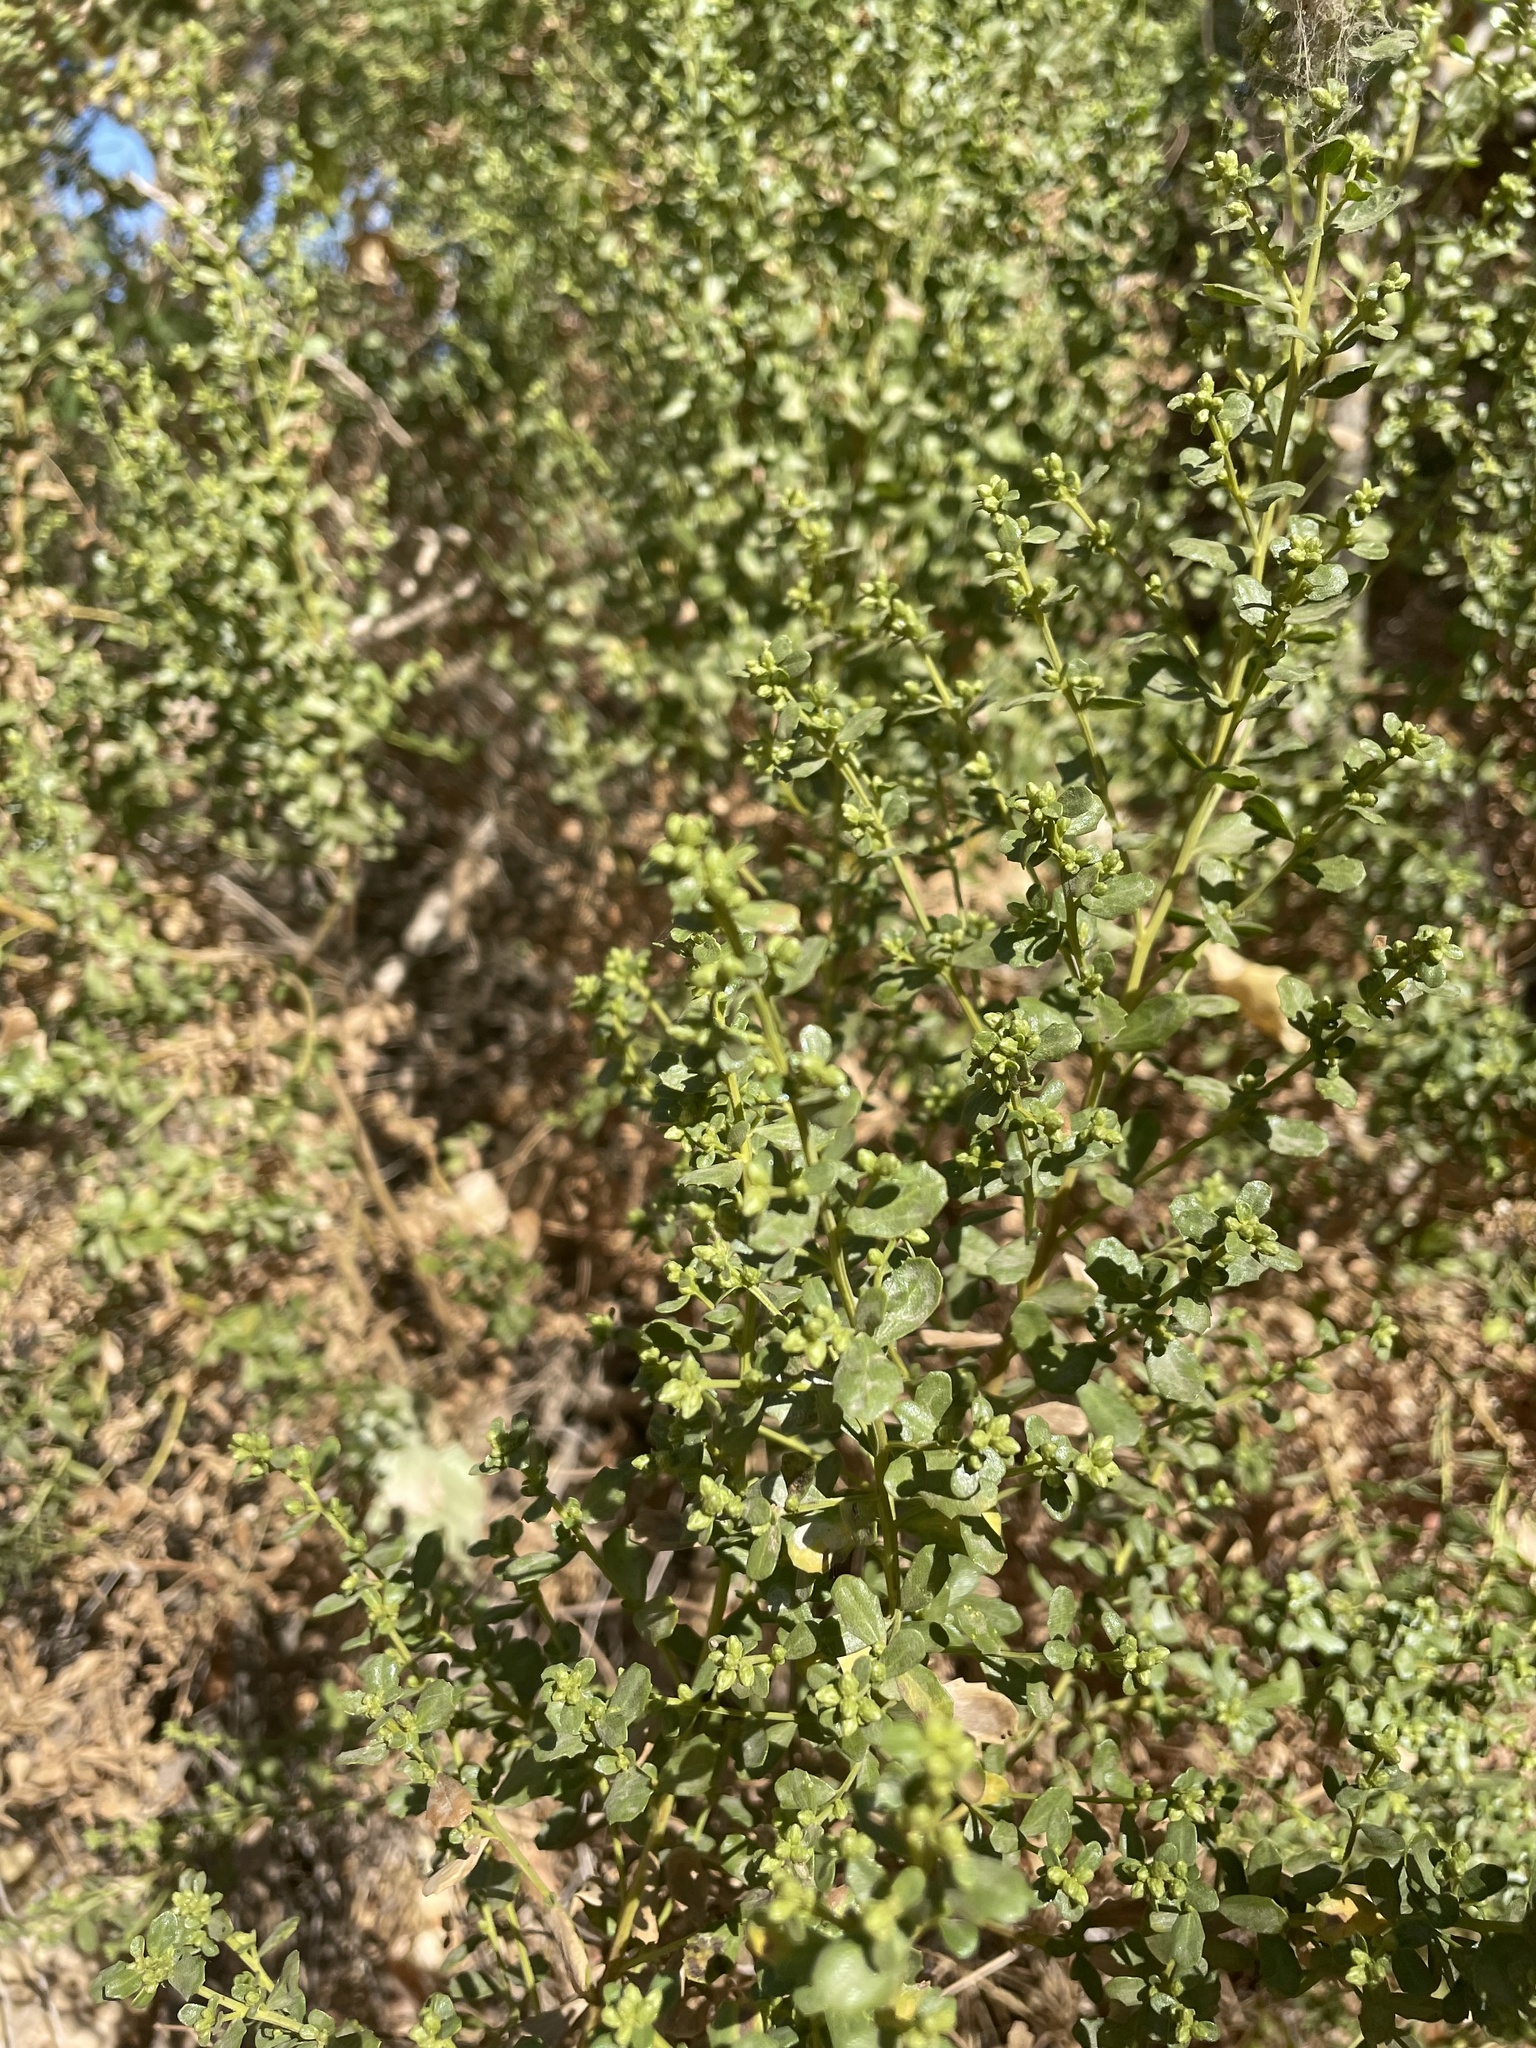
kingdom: Plantae
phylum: Tracheophyta
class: Magnoliopsida
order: Asterales
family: Asteraceae
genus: Baccharis
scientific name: Baccharis pilularis
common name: Coyotebrush
